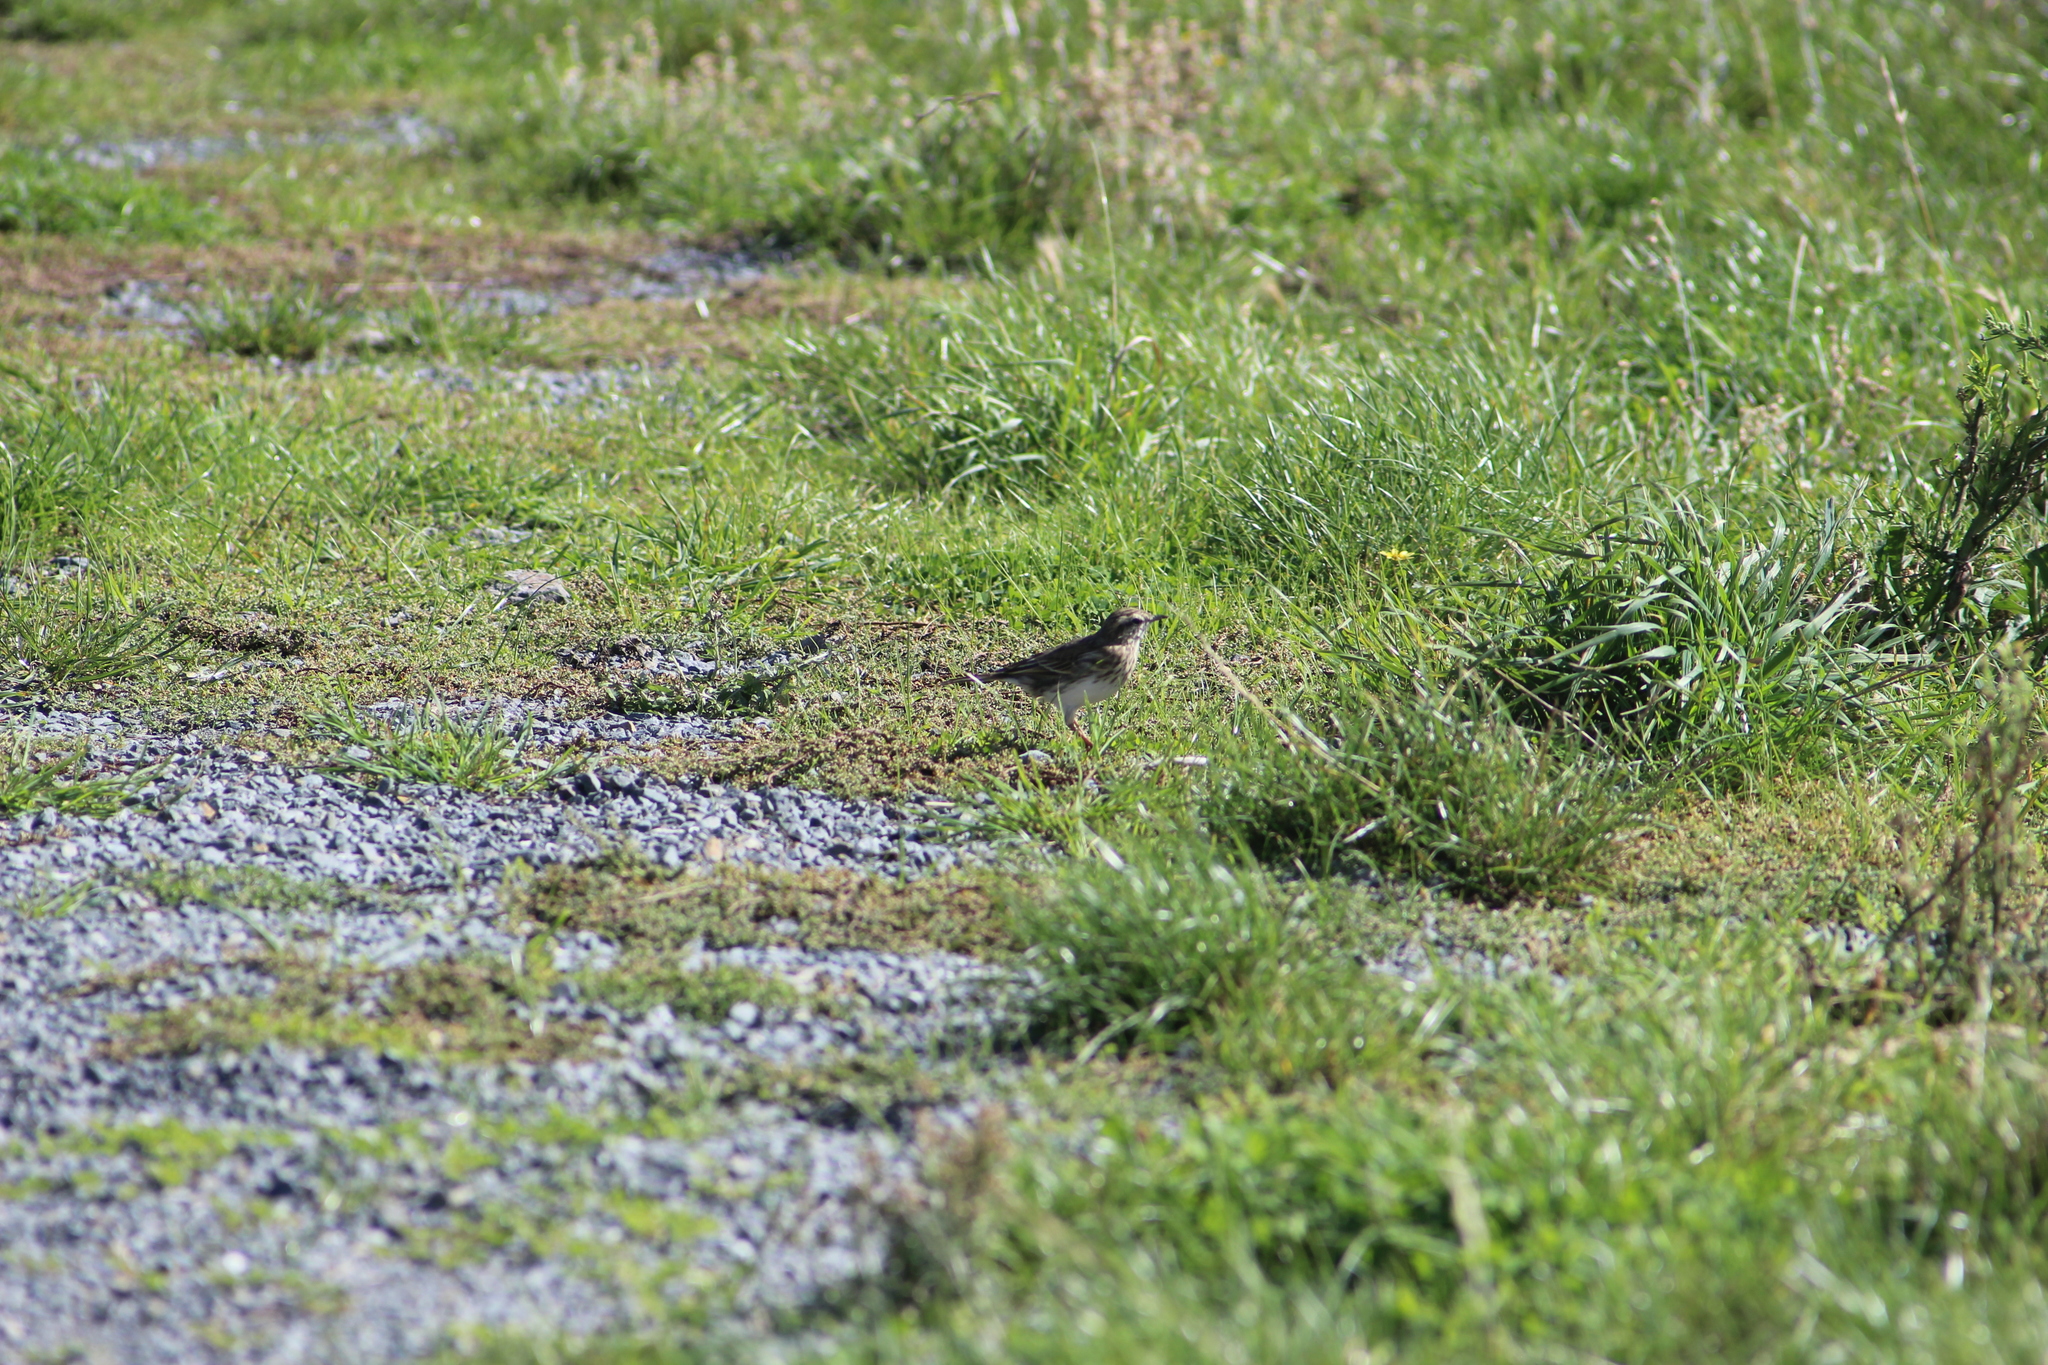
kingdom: Animalia
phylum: Chordata
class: Aves
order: Passeriformes
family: Motacillidae
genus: Anthus
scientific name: Anthus novaeseelandiae
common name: New zealand pipit
